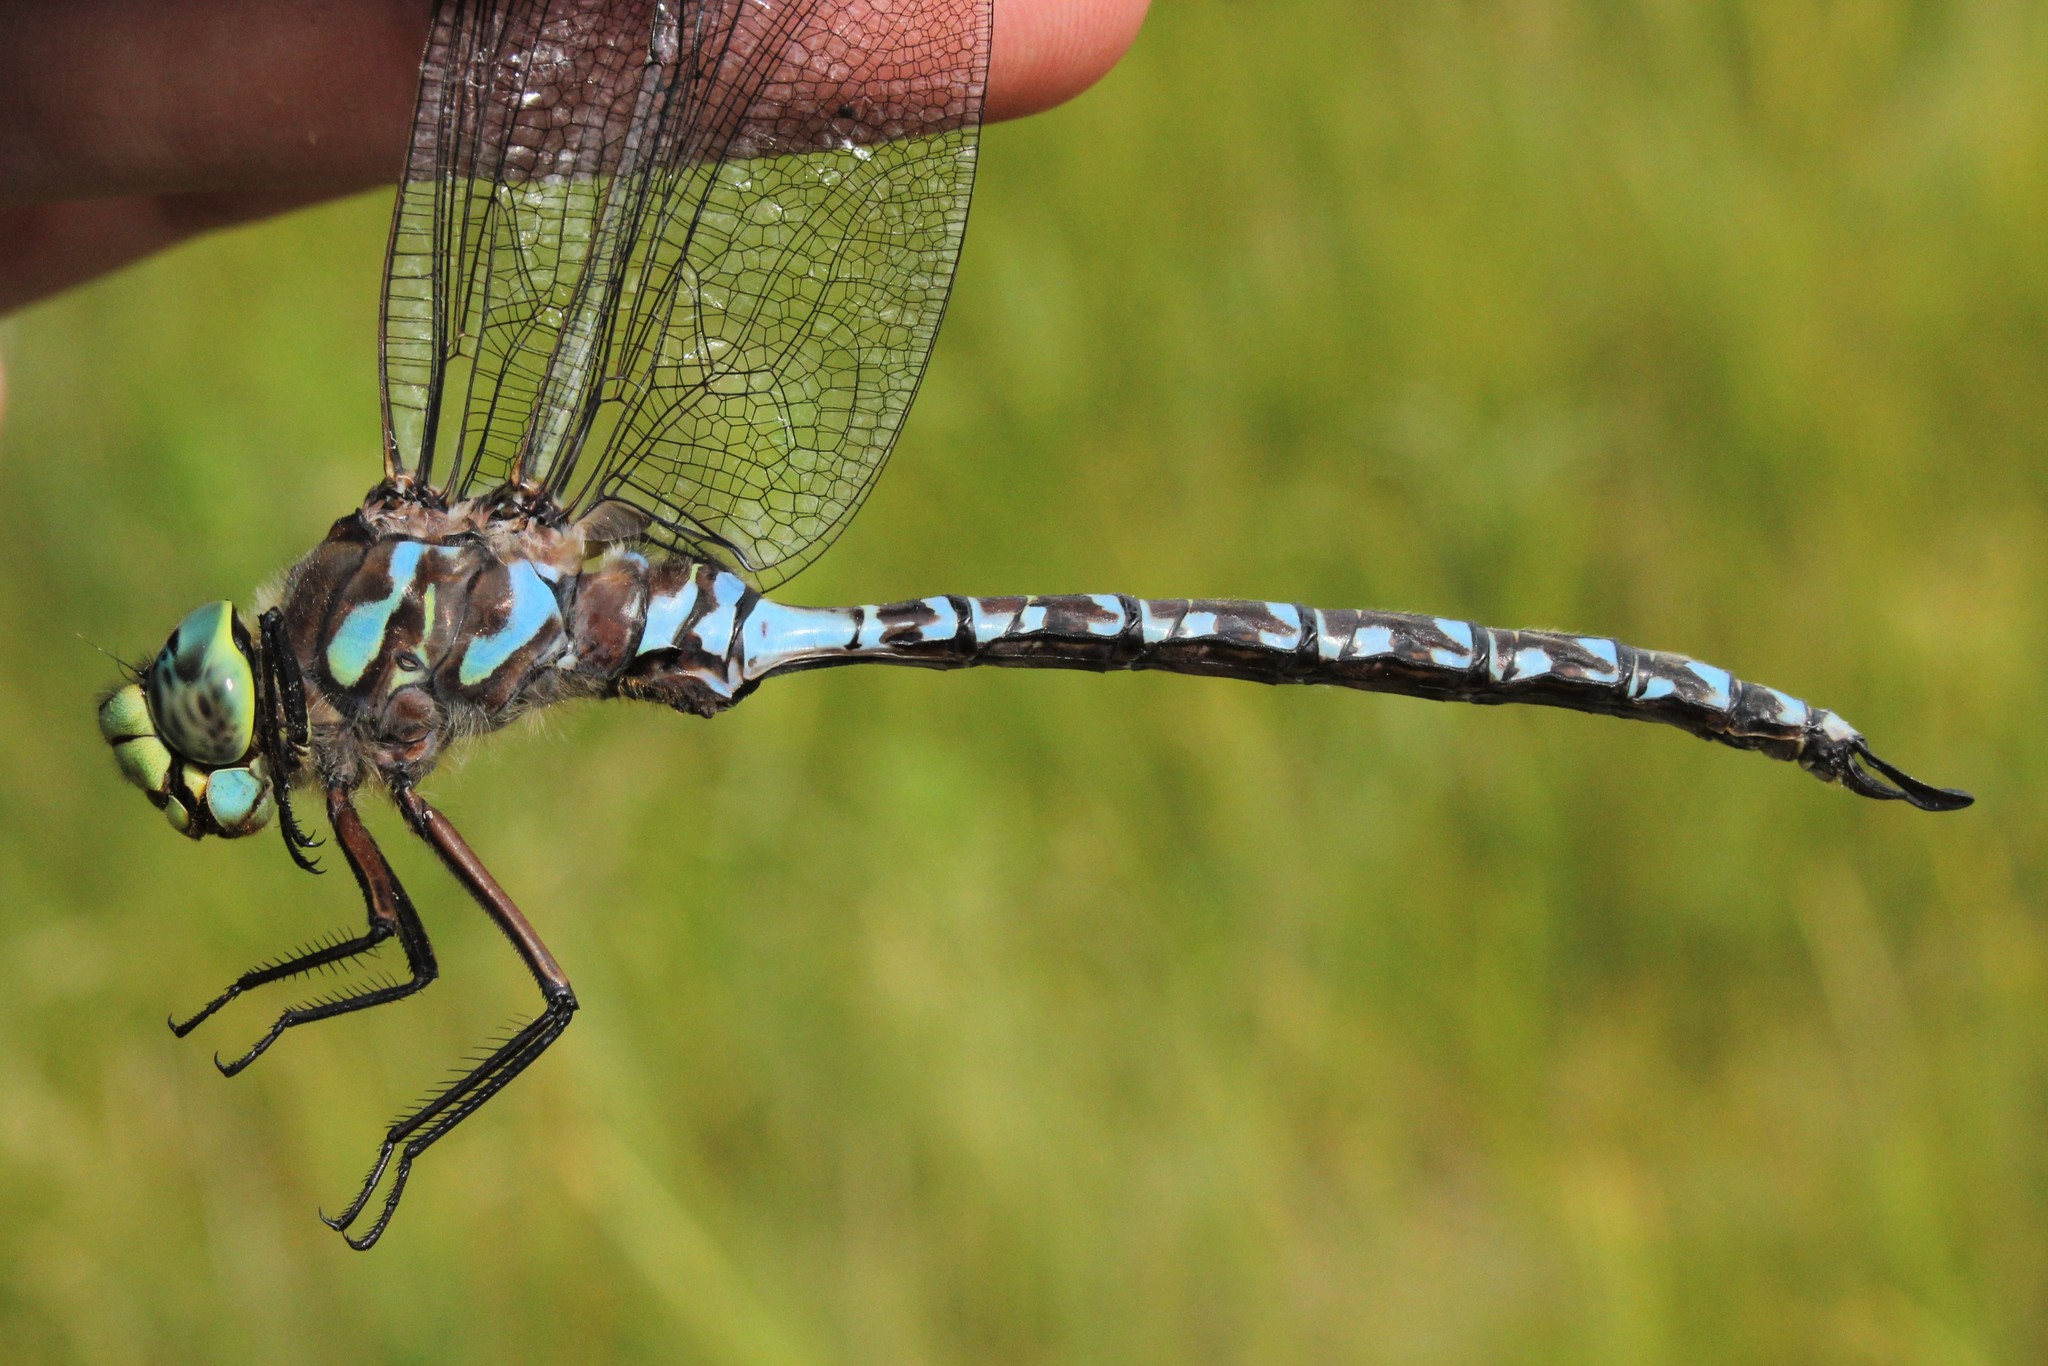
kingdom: Animalia
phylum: Arthropoda
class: Insecta
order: Odonata
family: Aeshnidae
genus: Aeshna
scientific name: Aeshna eremita
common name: Lake darner
